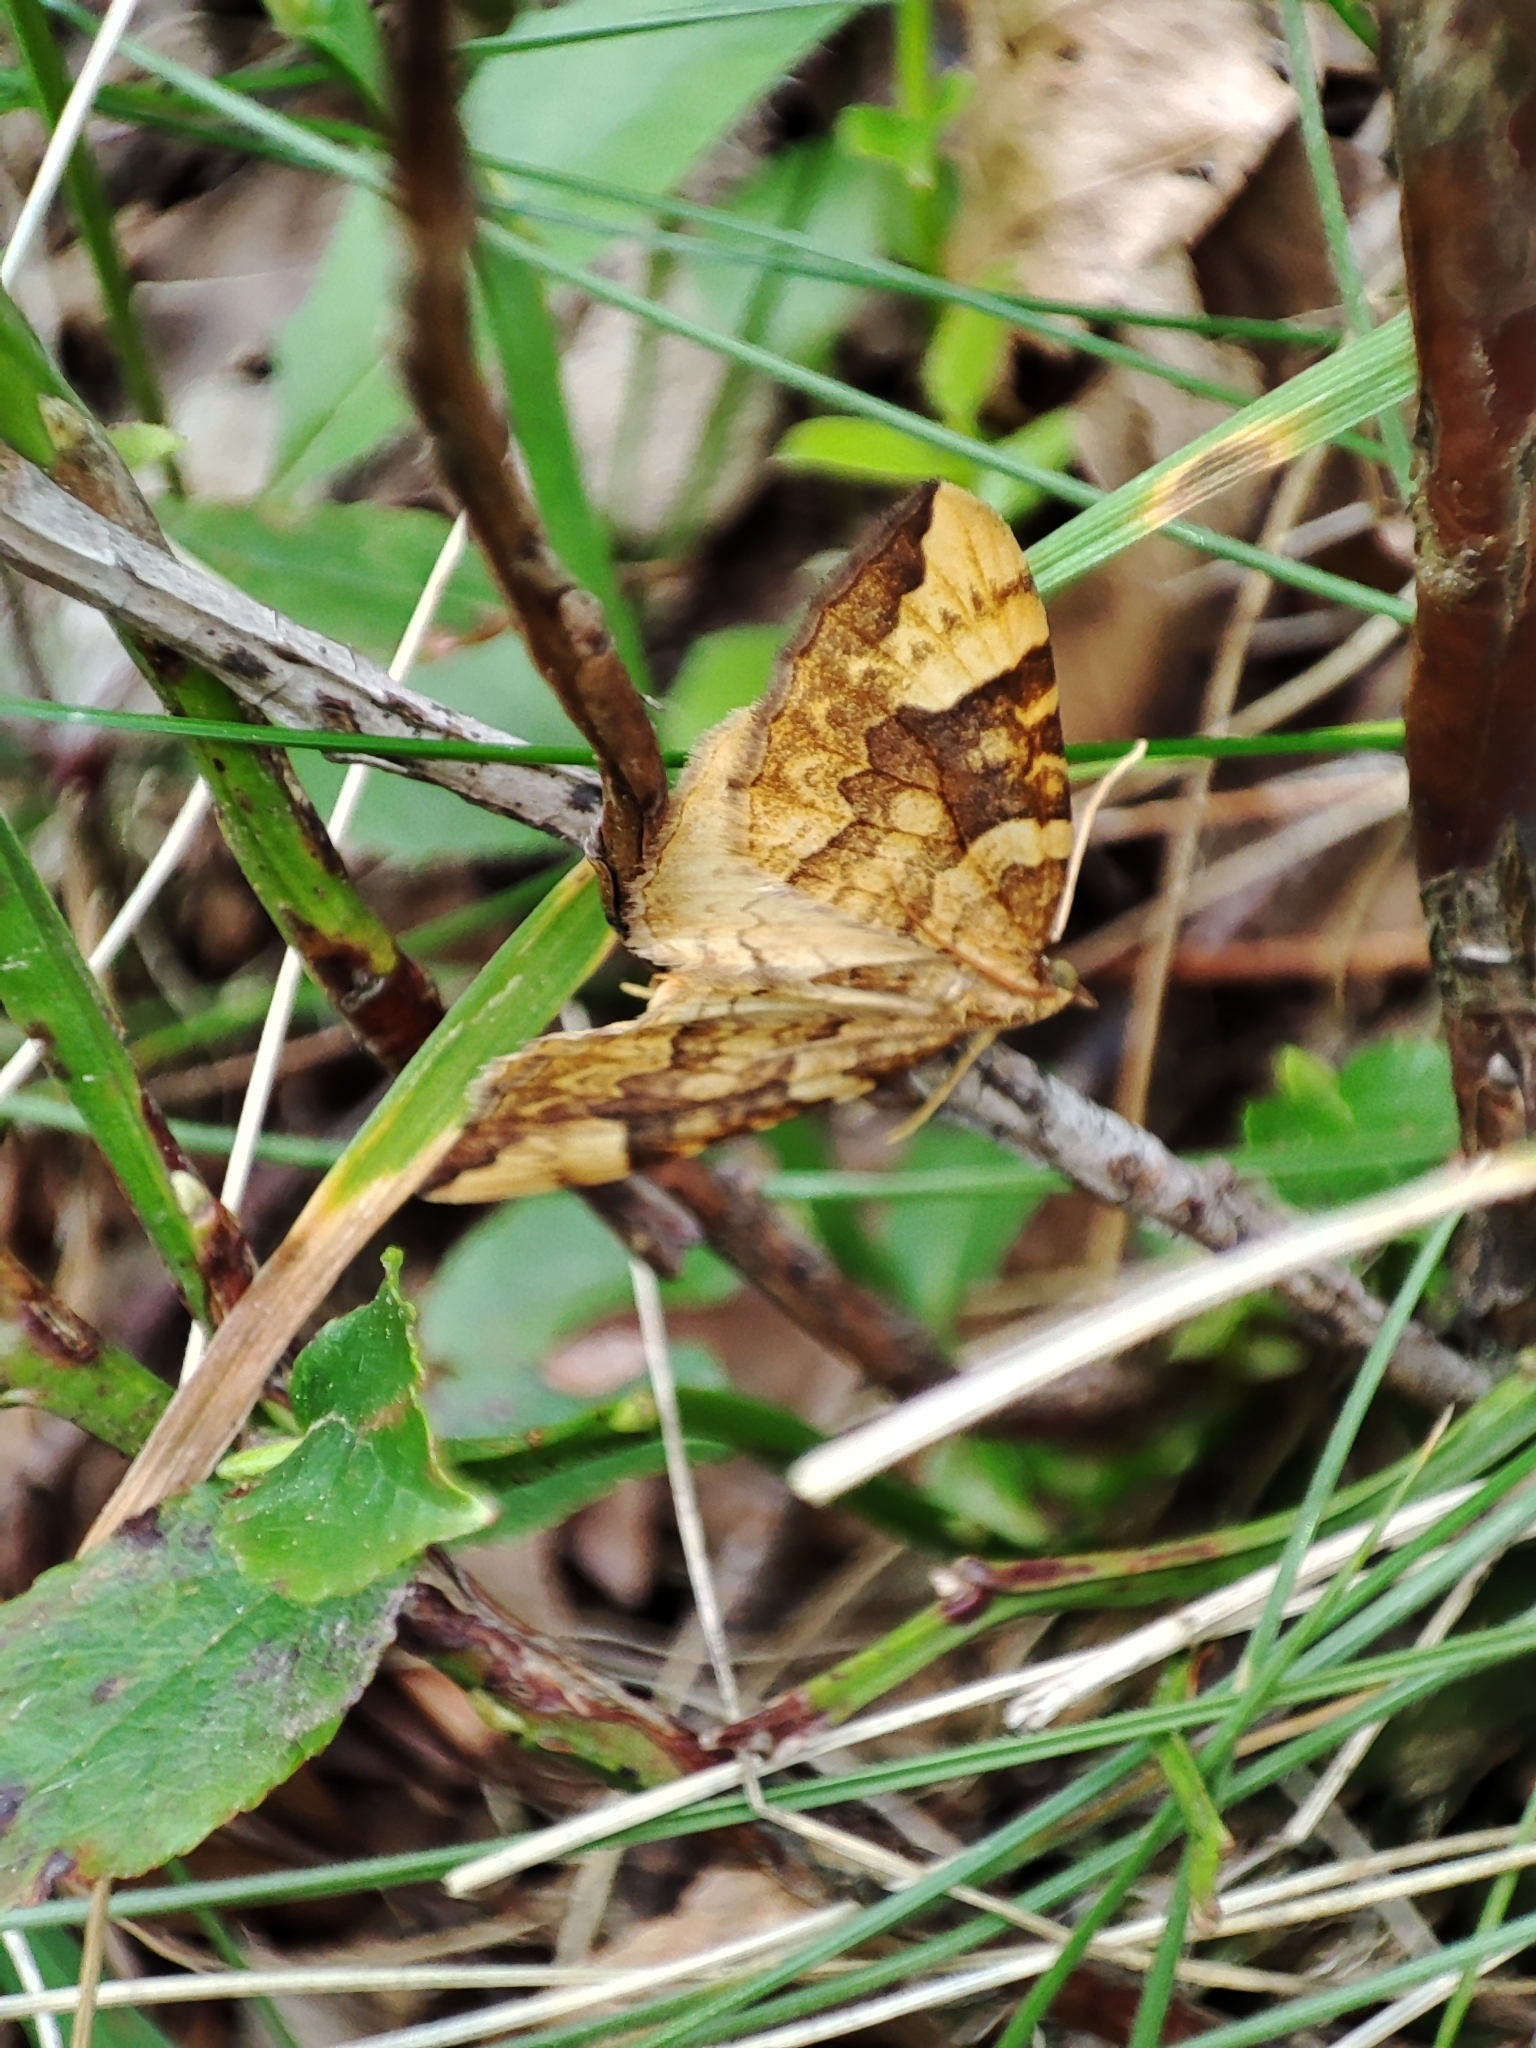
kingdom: Animalia
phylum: Arthropoda
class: Insecta
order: Lepidoptera
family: Geometridae
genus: Eulithis
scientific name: Eulithis populata
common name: Northern spinach
